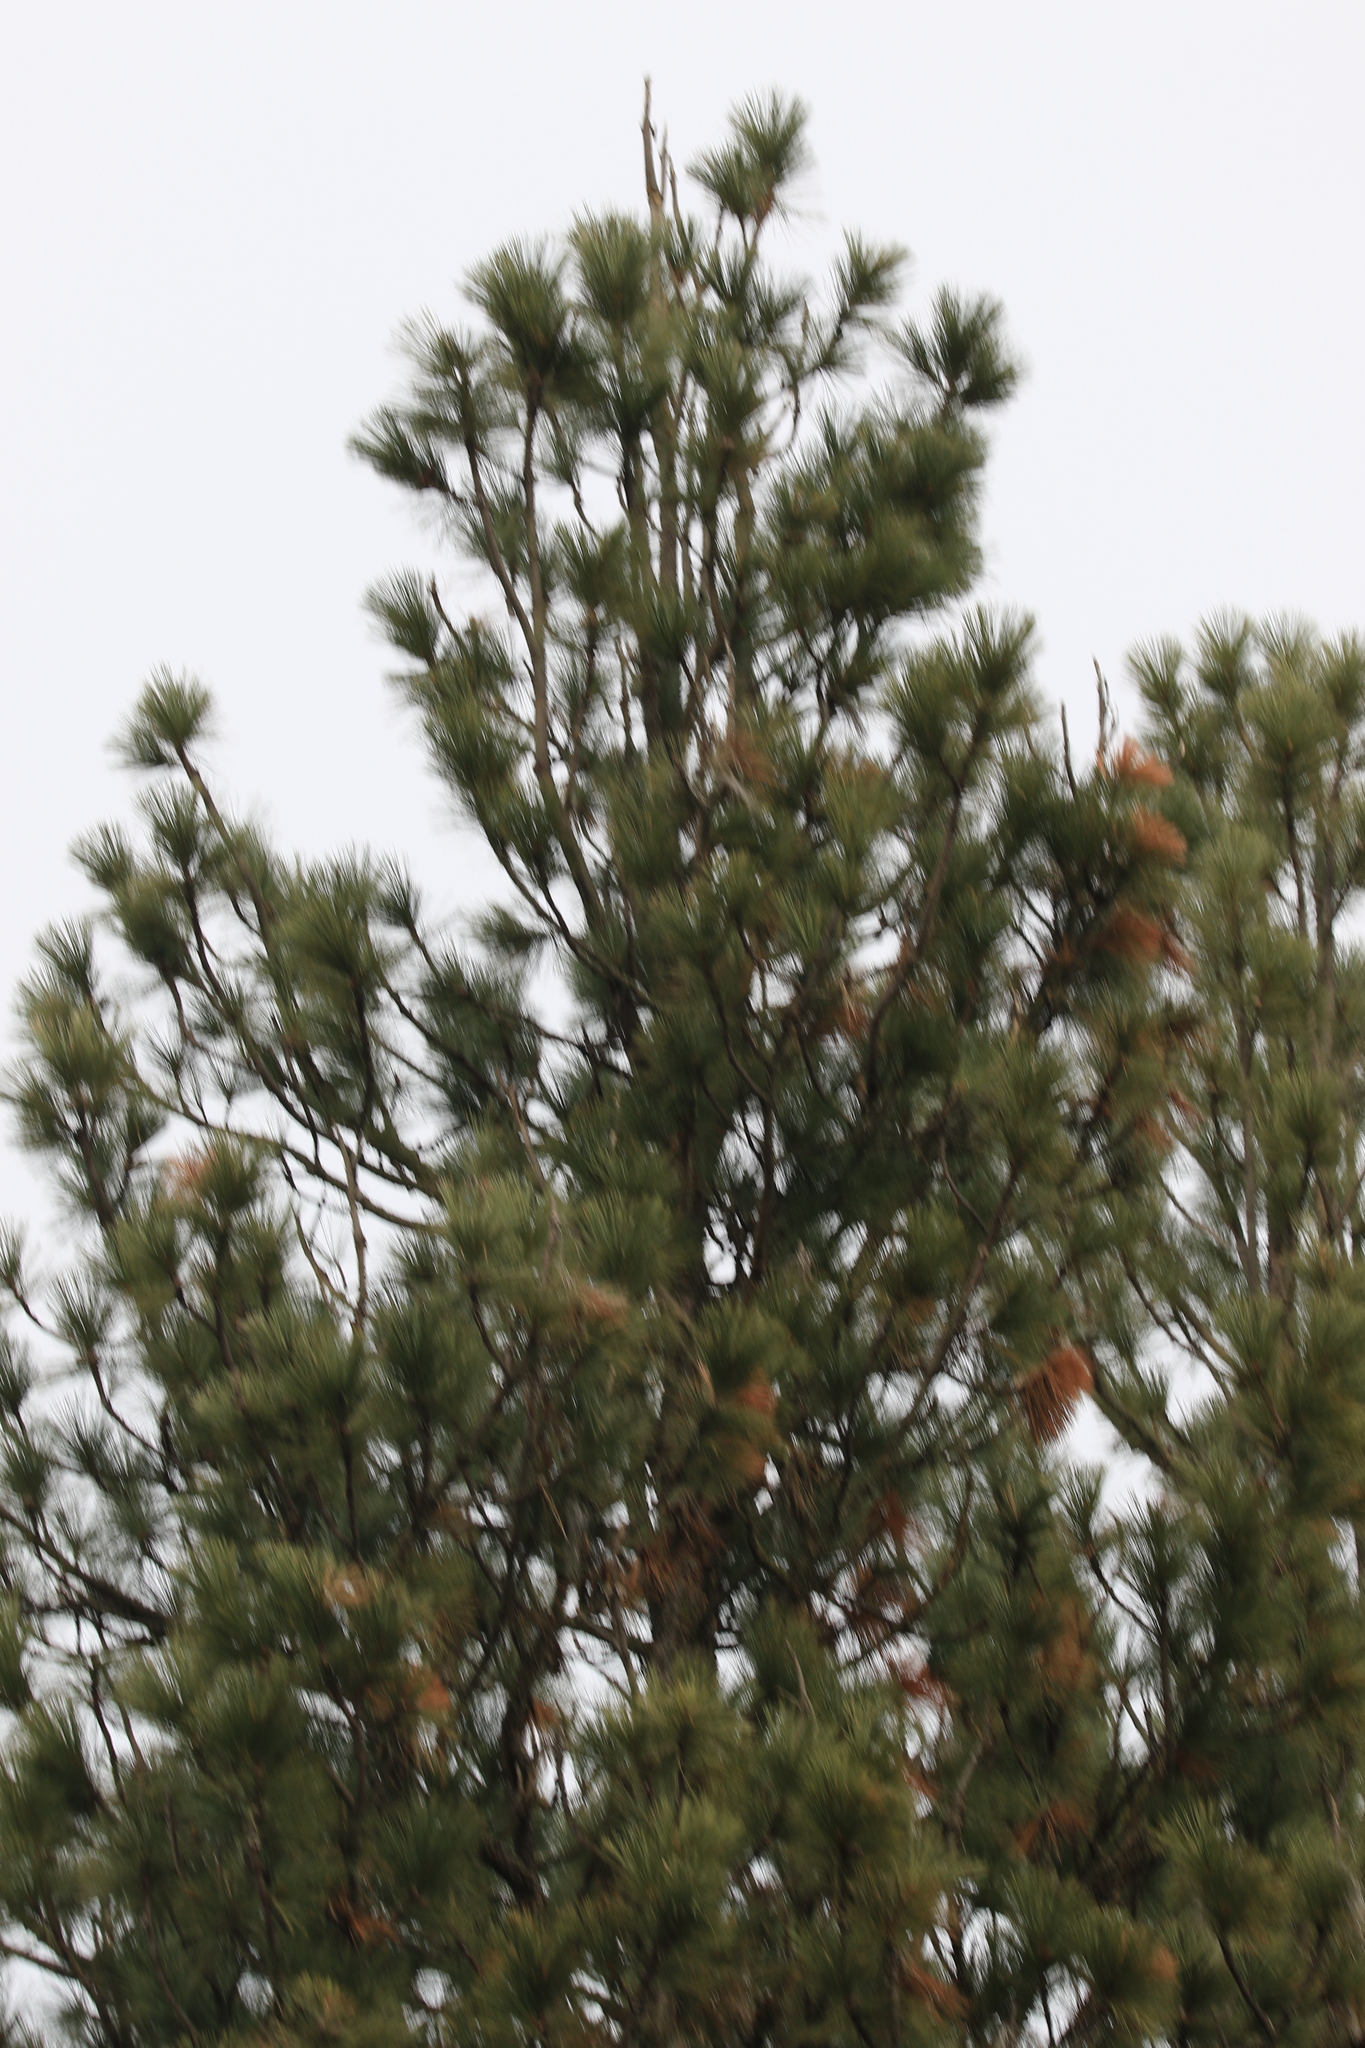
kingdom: Plantae
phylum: Tracheophyta
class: Pinopsida
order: Pinales
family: Pinaceae
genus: Pinus
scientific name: Pinus ponderosa
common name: Western yellow-pine
